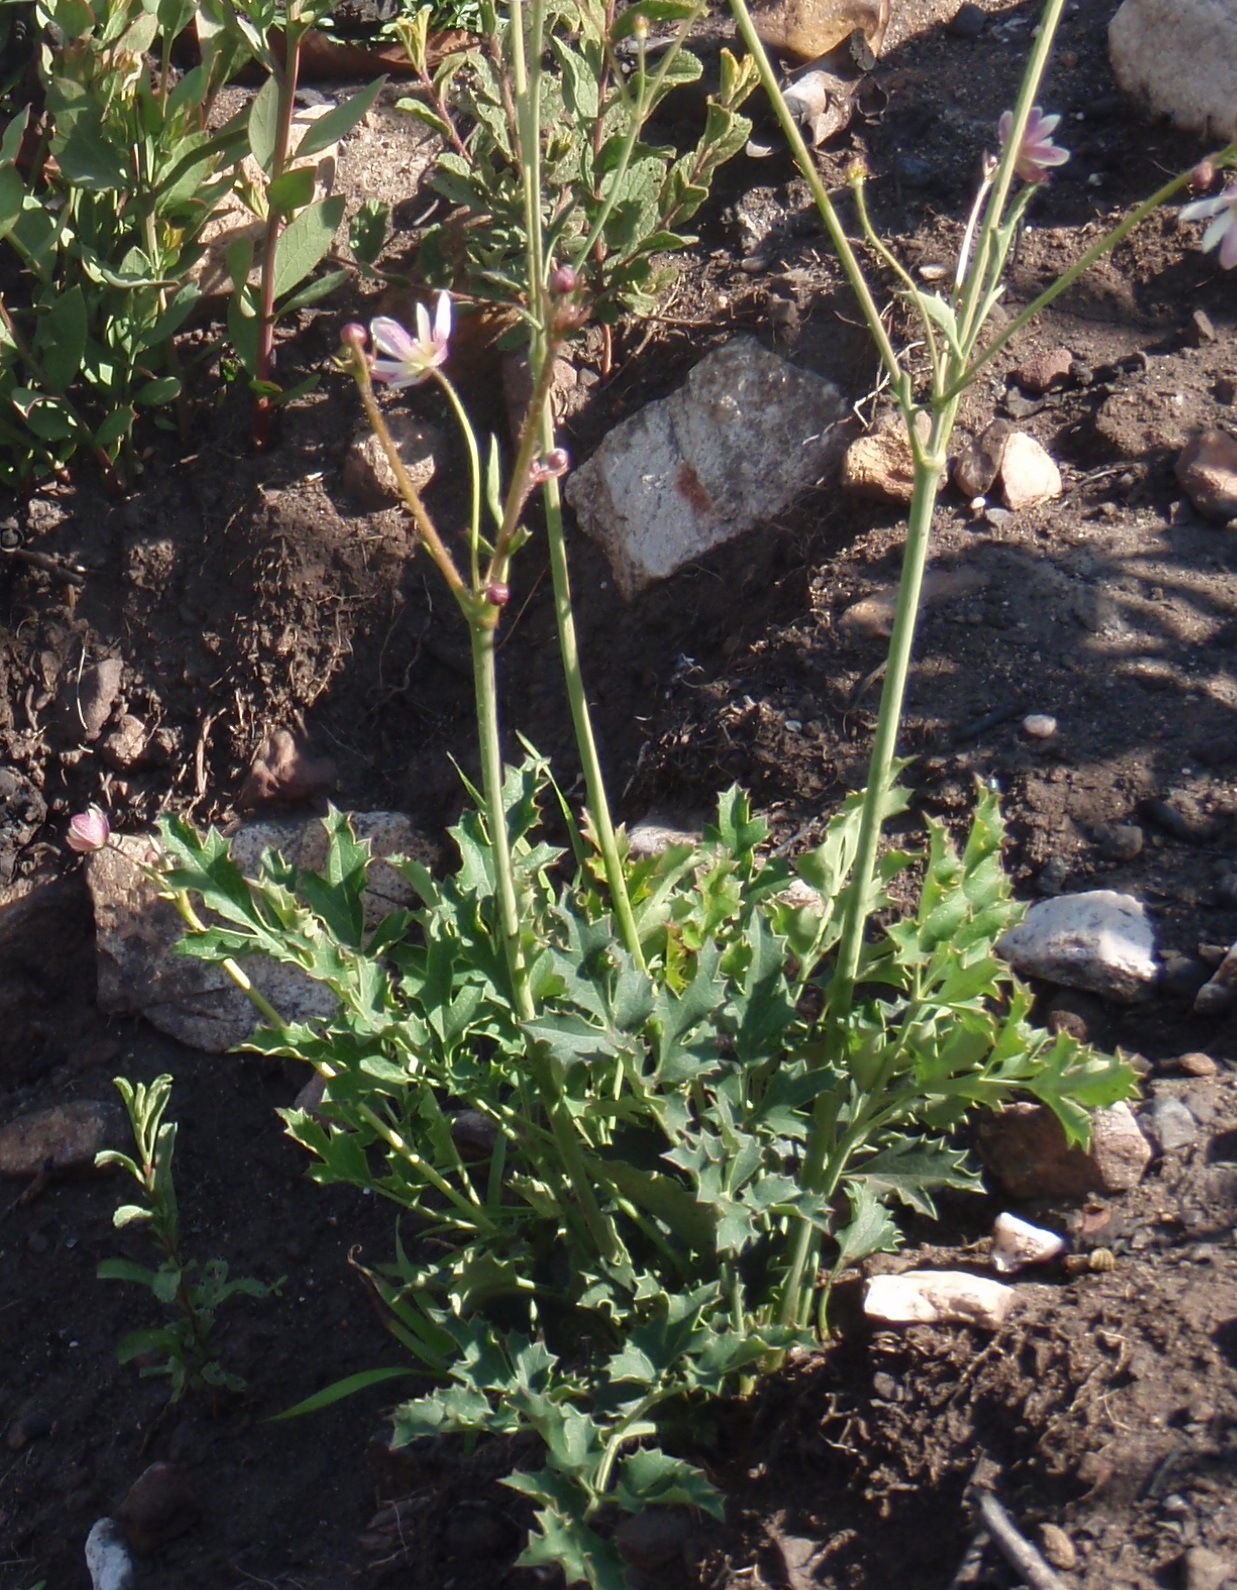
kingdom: Plantae
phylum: Tracheophyta
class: Magnoliopsida
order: Ranunculales
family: Ranunculaceae
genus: Knowltonia
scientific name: Knowltonia filia
